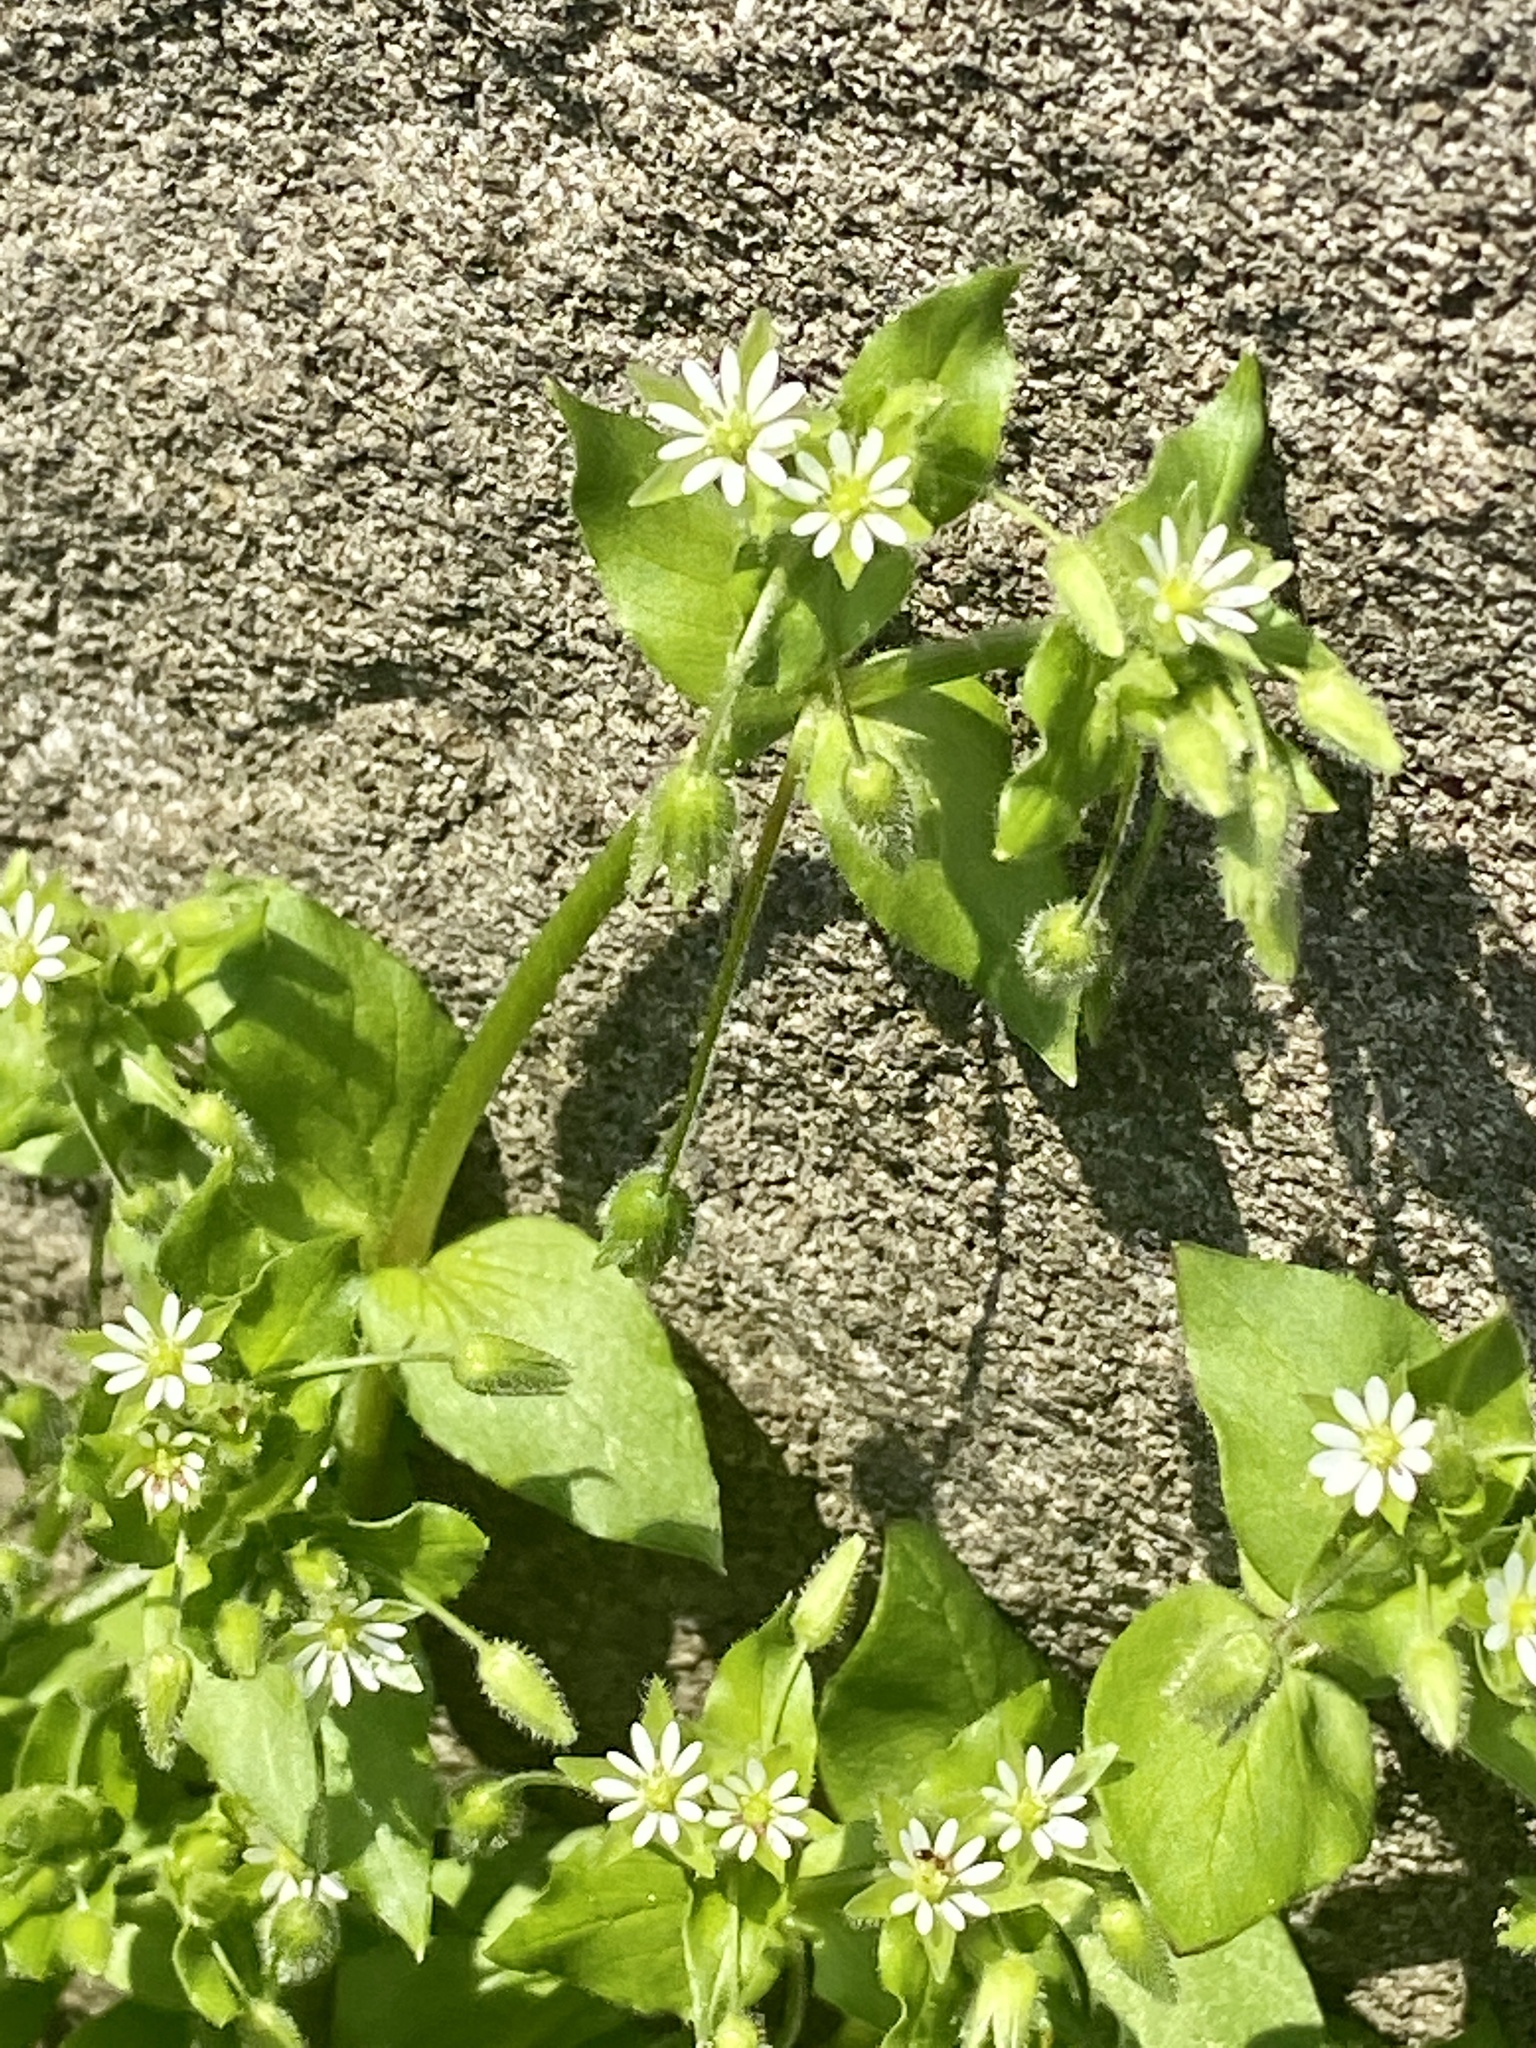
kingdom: Plantae
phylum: Tracheophyta
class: Magnoliopsida
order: Caryophyllales
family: Caryophyllaceae
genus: Stellaria
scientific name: Stellaria media
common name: Common chickweed
